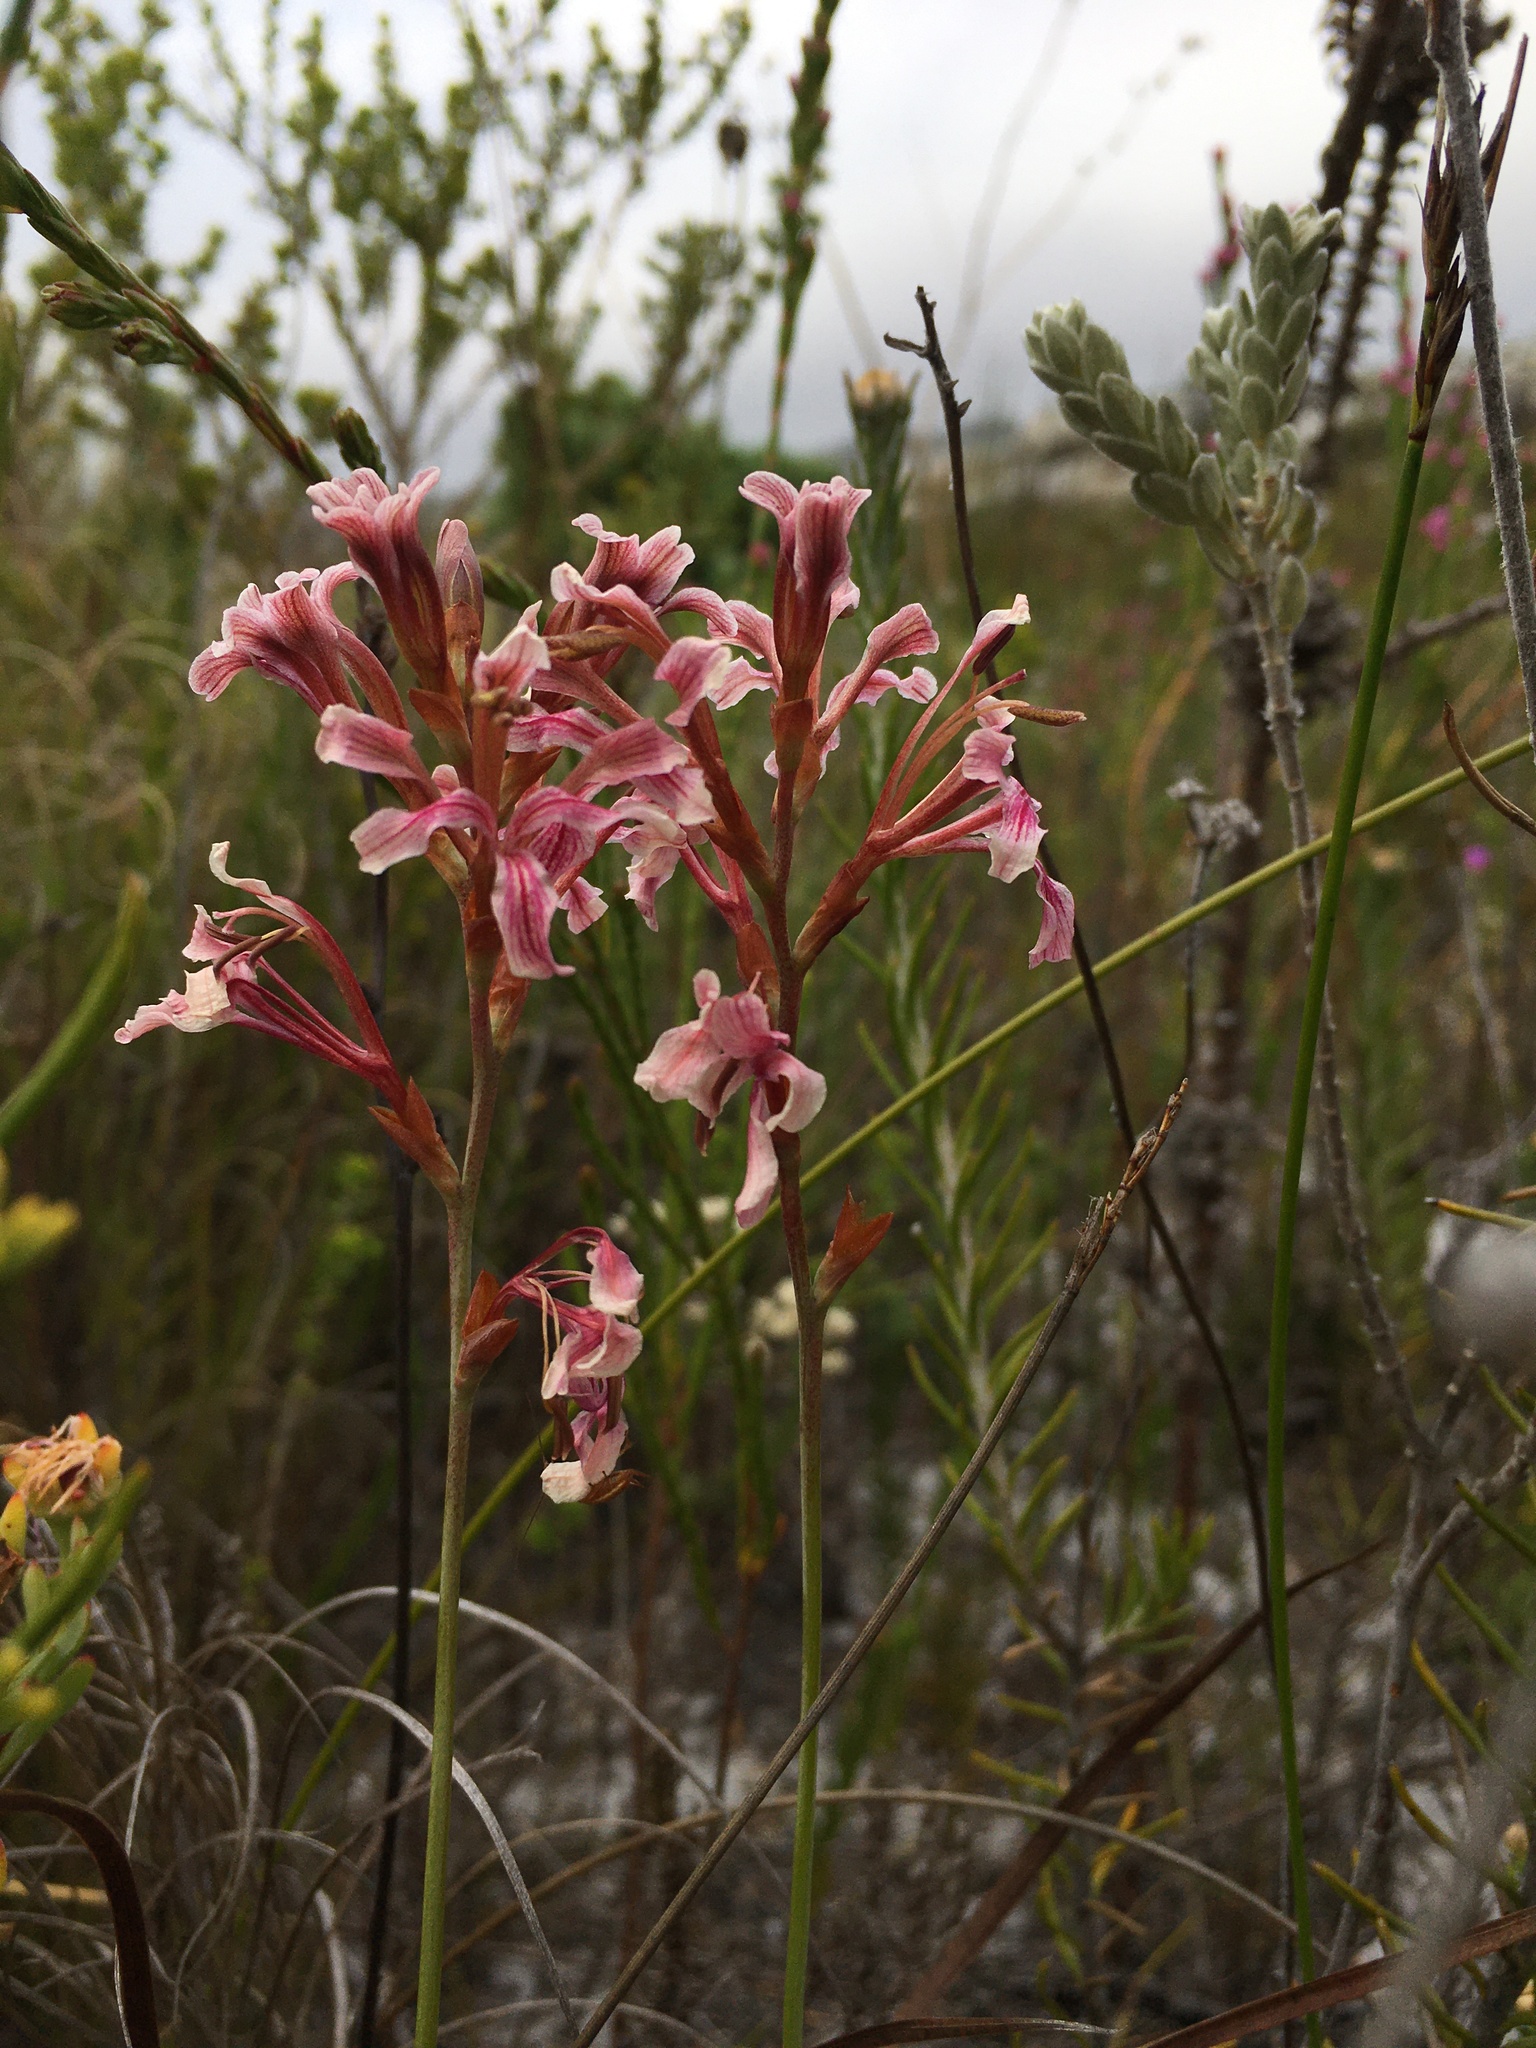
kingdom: Plantae
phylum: Tracheophyta
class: Liliopsida
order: Asparagales
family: Iridaceae
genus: Tritoniopsis
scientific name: Tritoniopsis dodii
